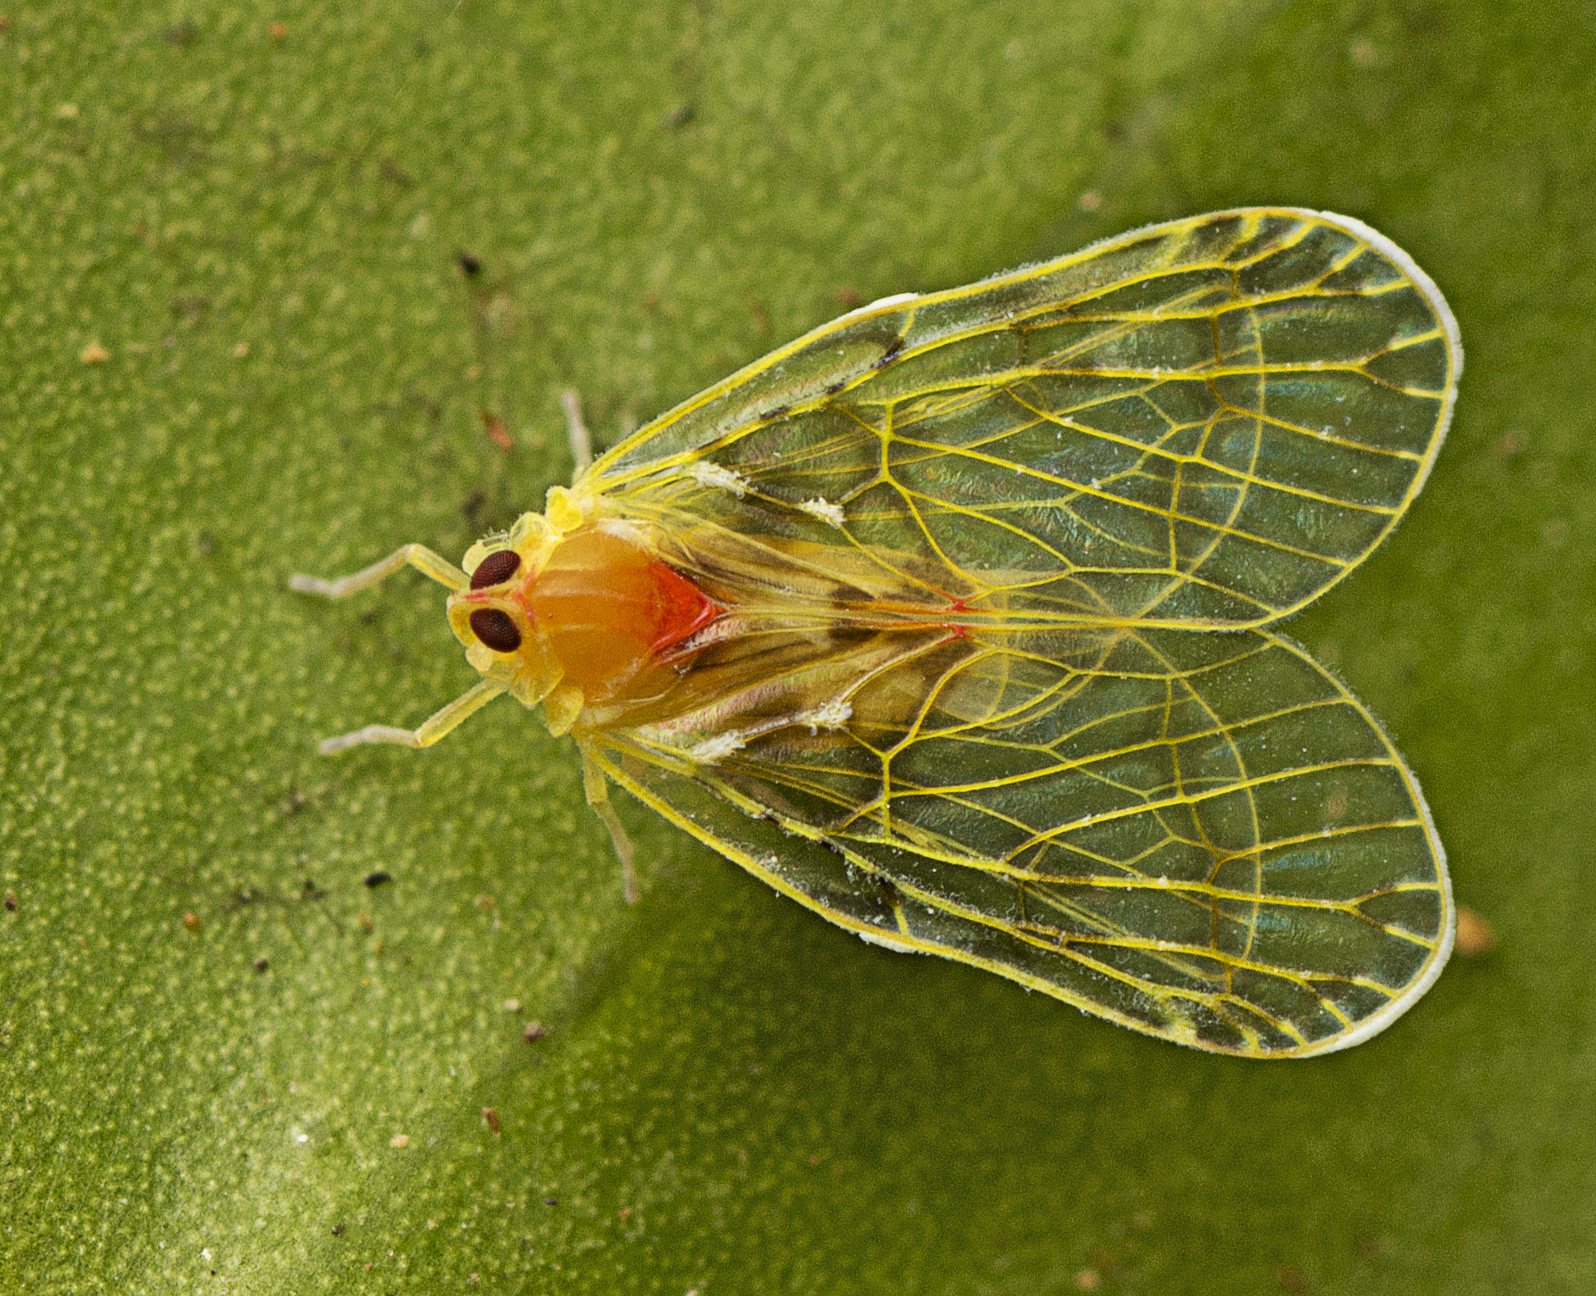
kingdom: Animalia
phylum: Arthropoda
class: Insecta
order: Hemiptera
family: Derbidae
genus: Saccharodite
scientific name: Saccharodite chrysonoe
